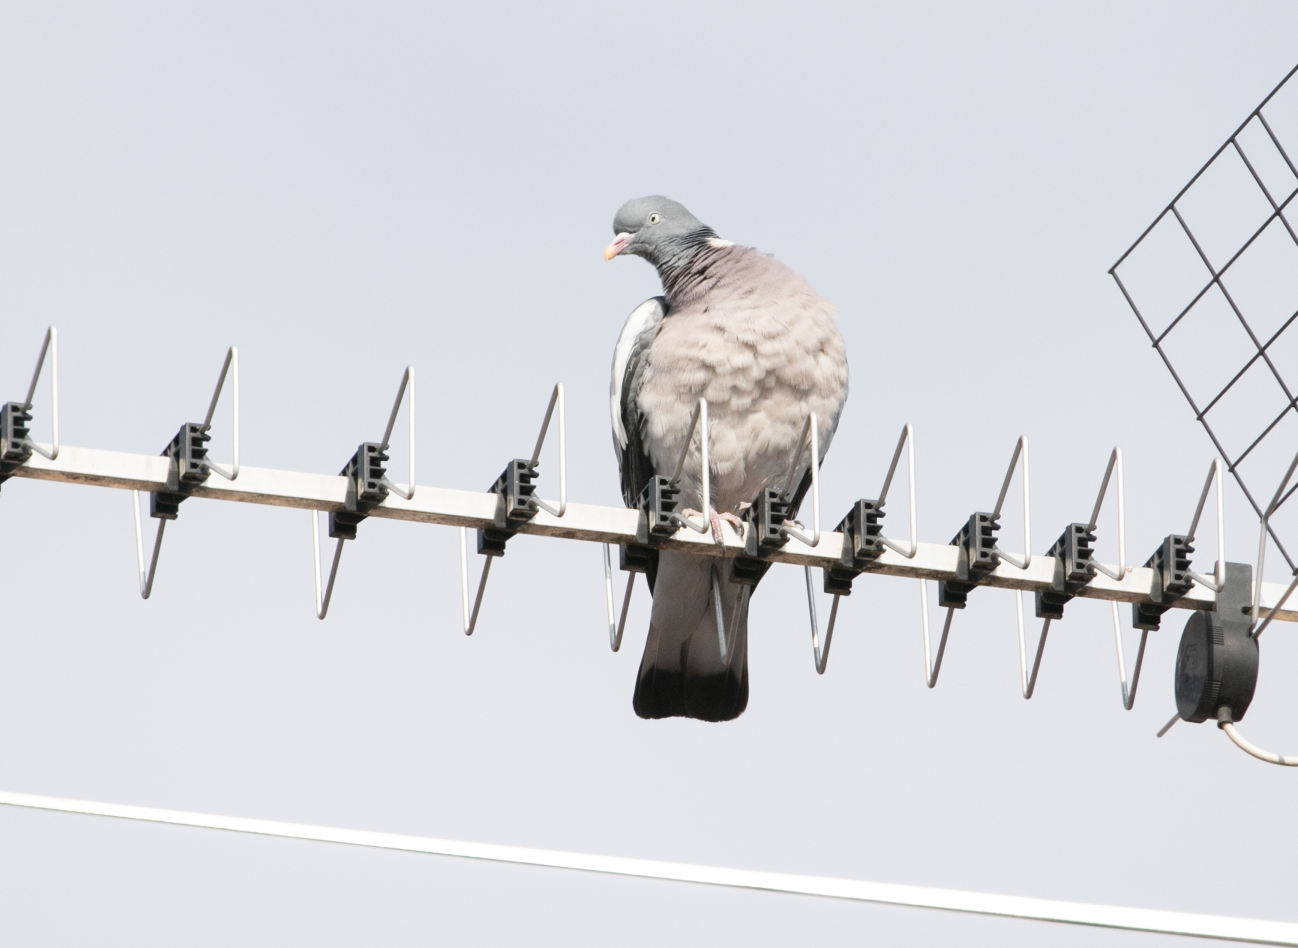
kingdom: Animalia
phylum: Chordata
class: Aves
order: Columbiformes
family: Columbidae
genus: Columba
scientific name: Columba palumbus
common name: Common wood pigeon
